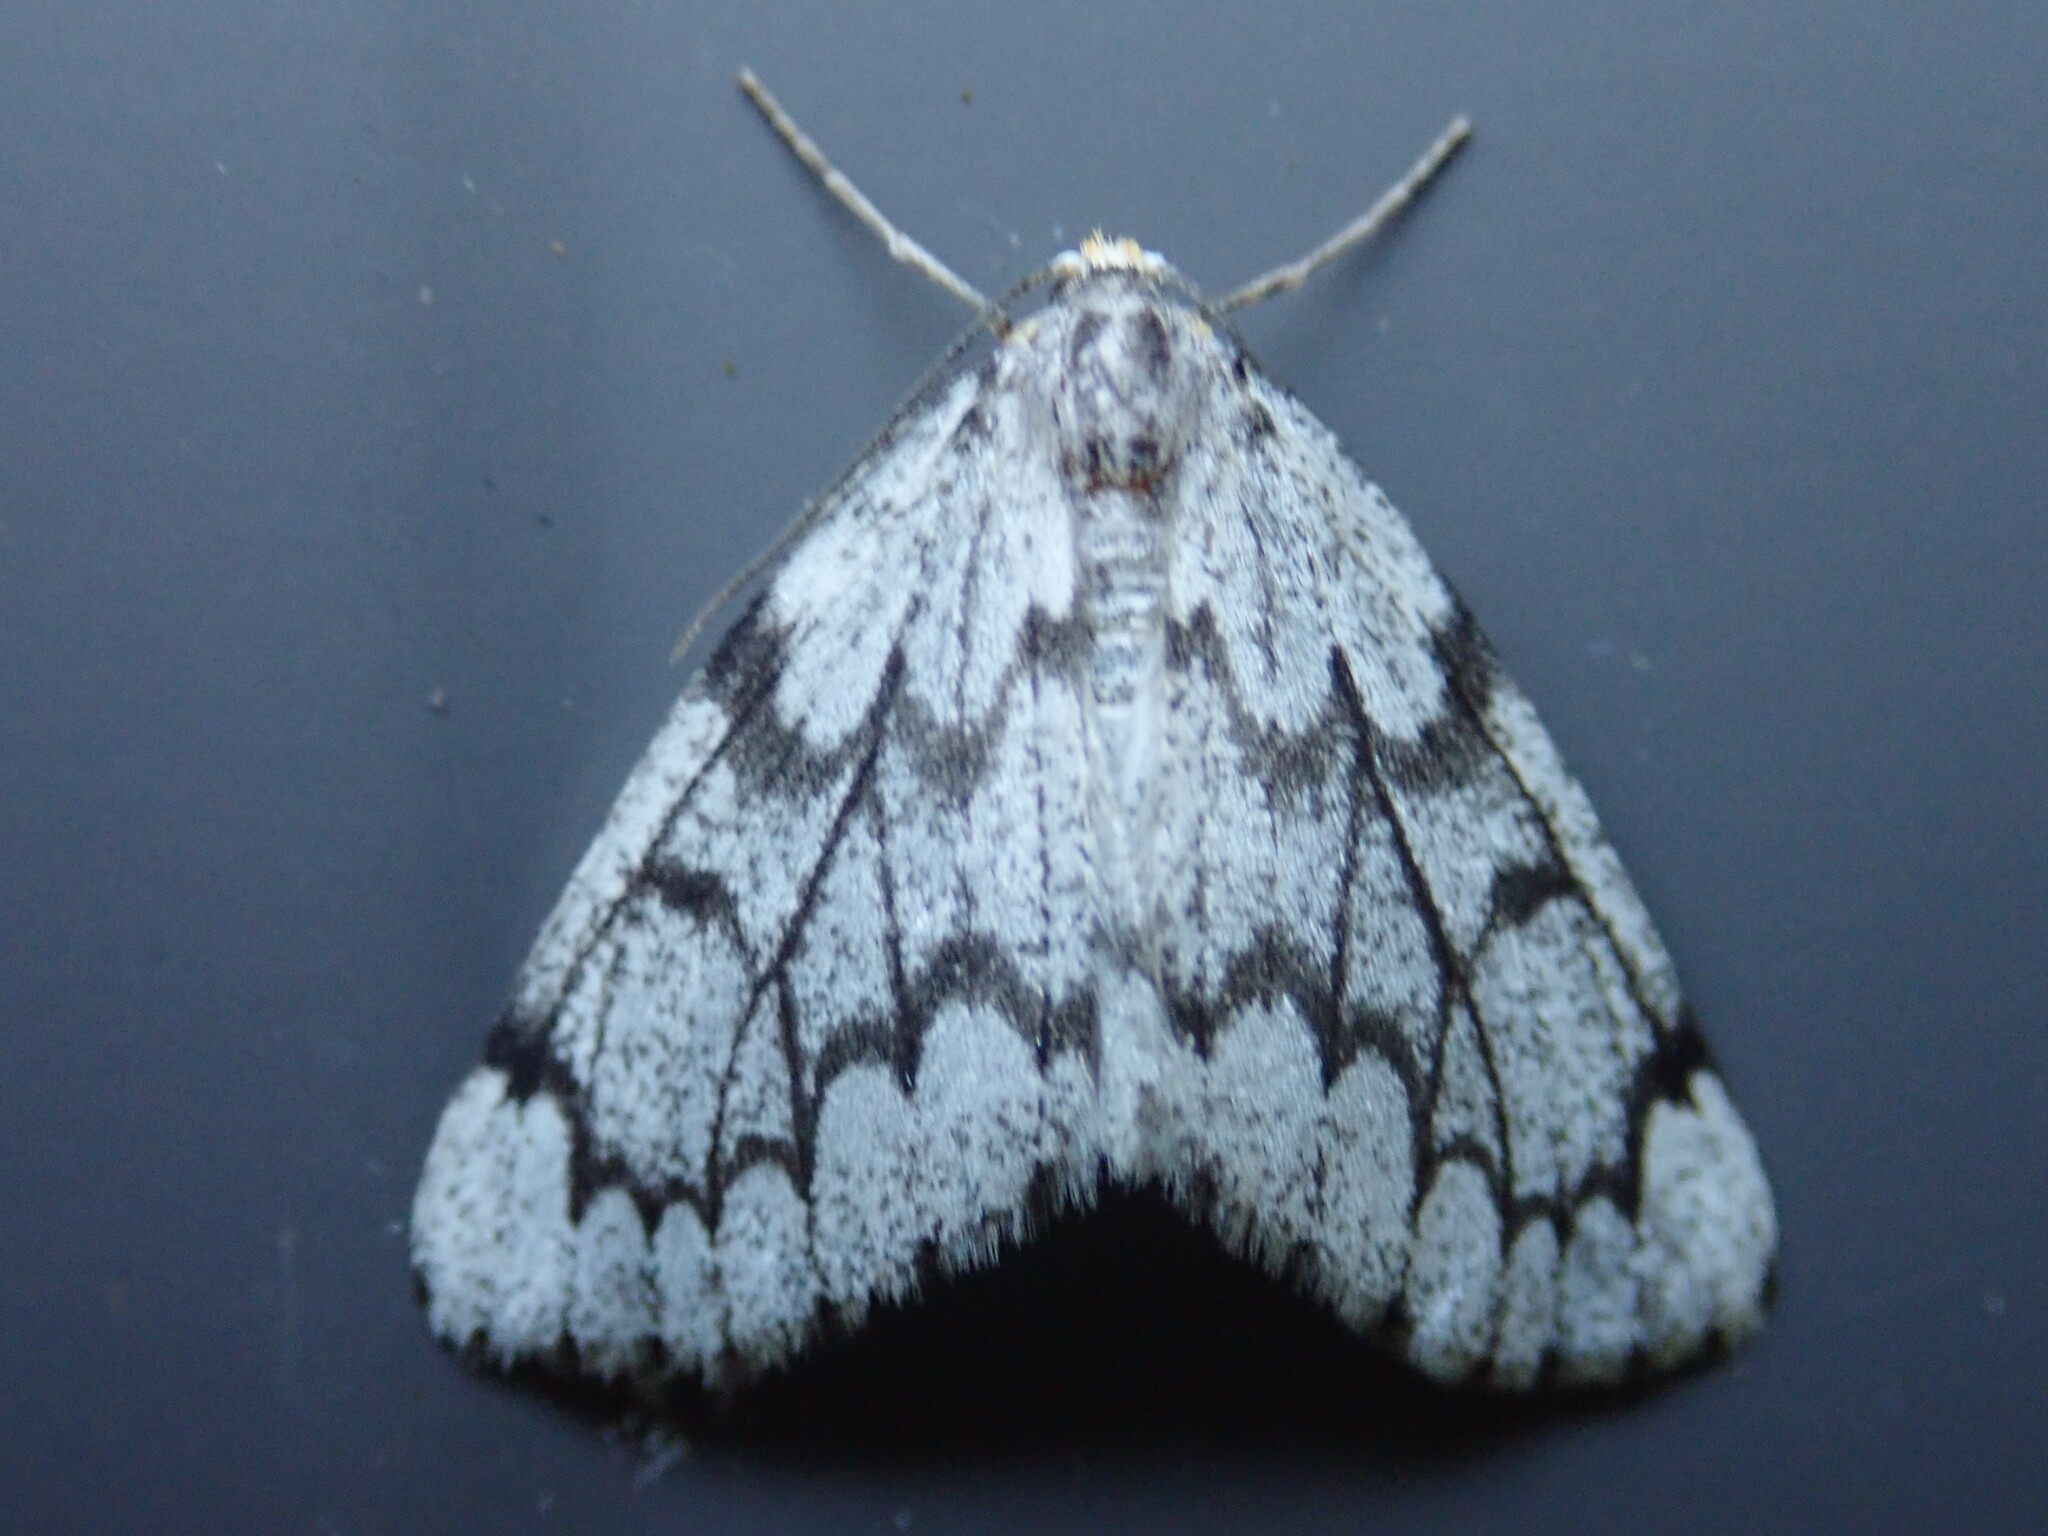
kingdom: Animalia
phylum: Arthropoda
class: Insecta
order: Lepidoptera
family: Geometridae
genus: Nepytia
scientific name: Nepytia canosaria
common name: False hemlock looper
